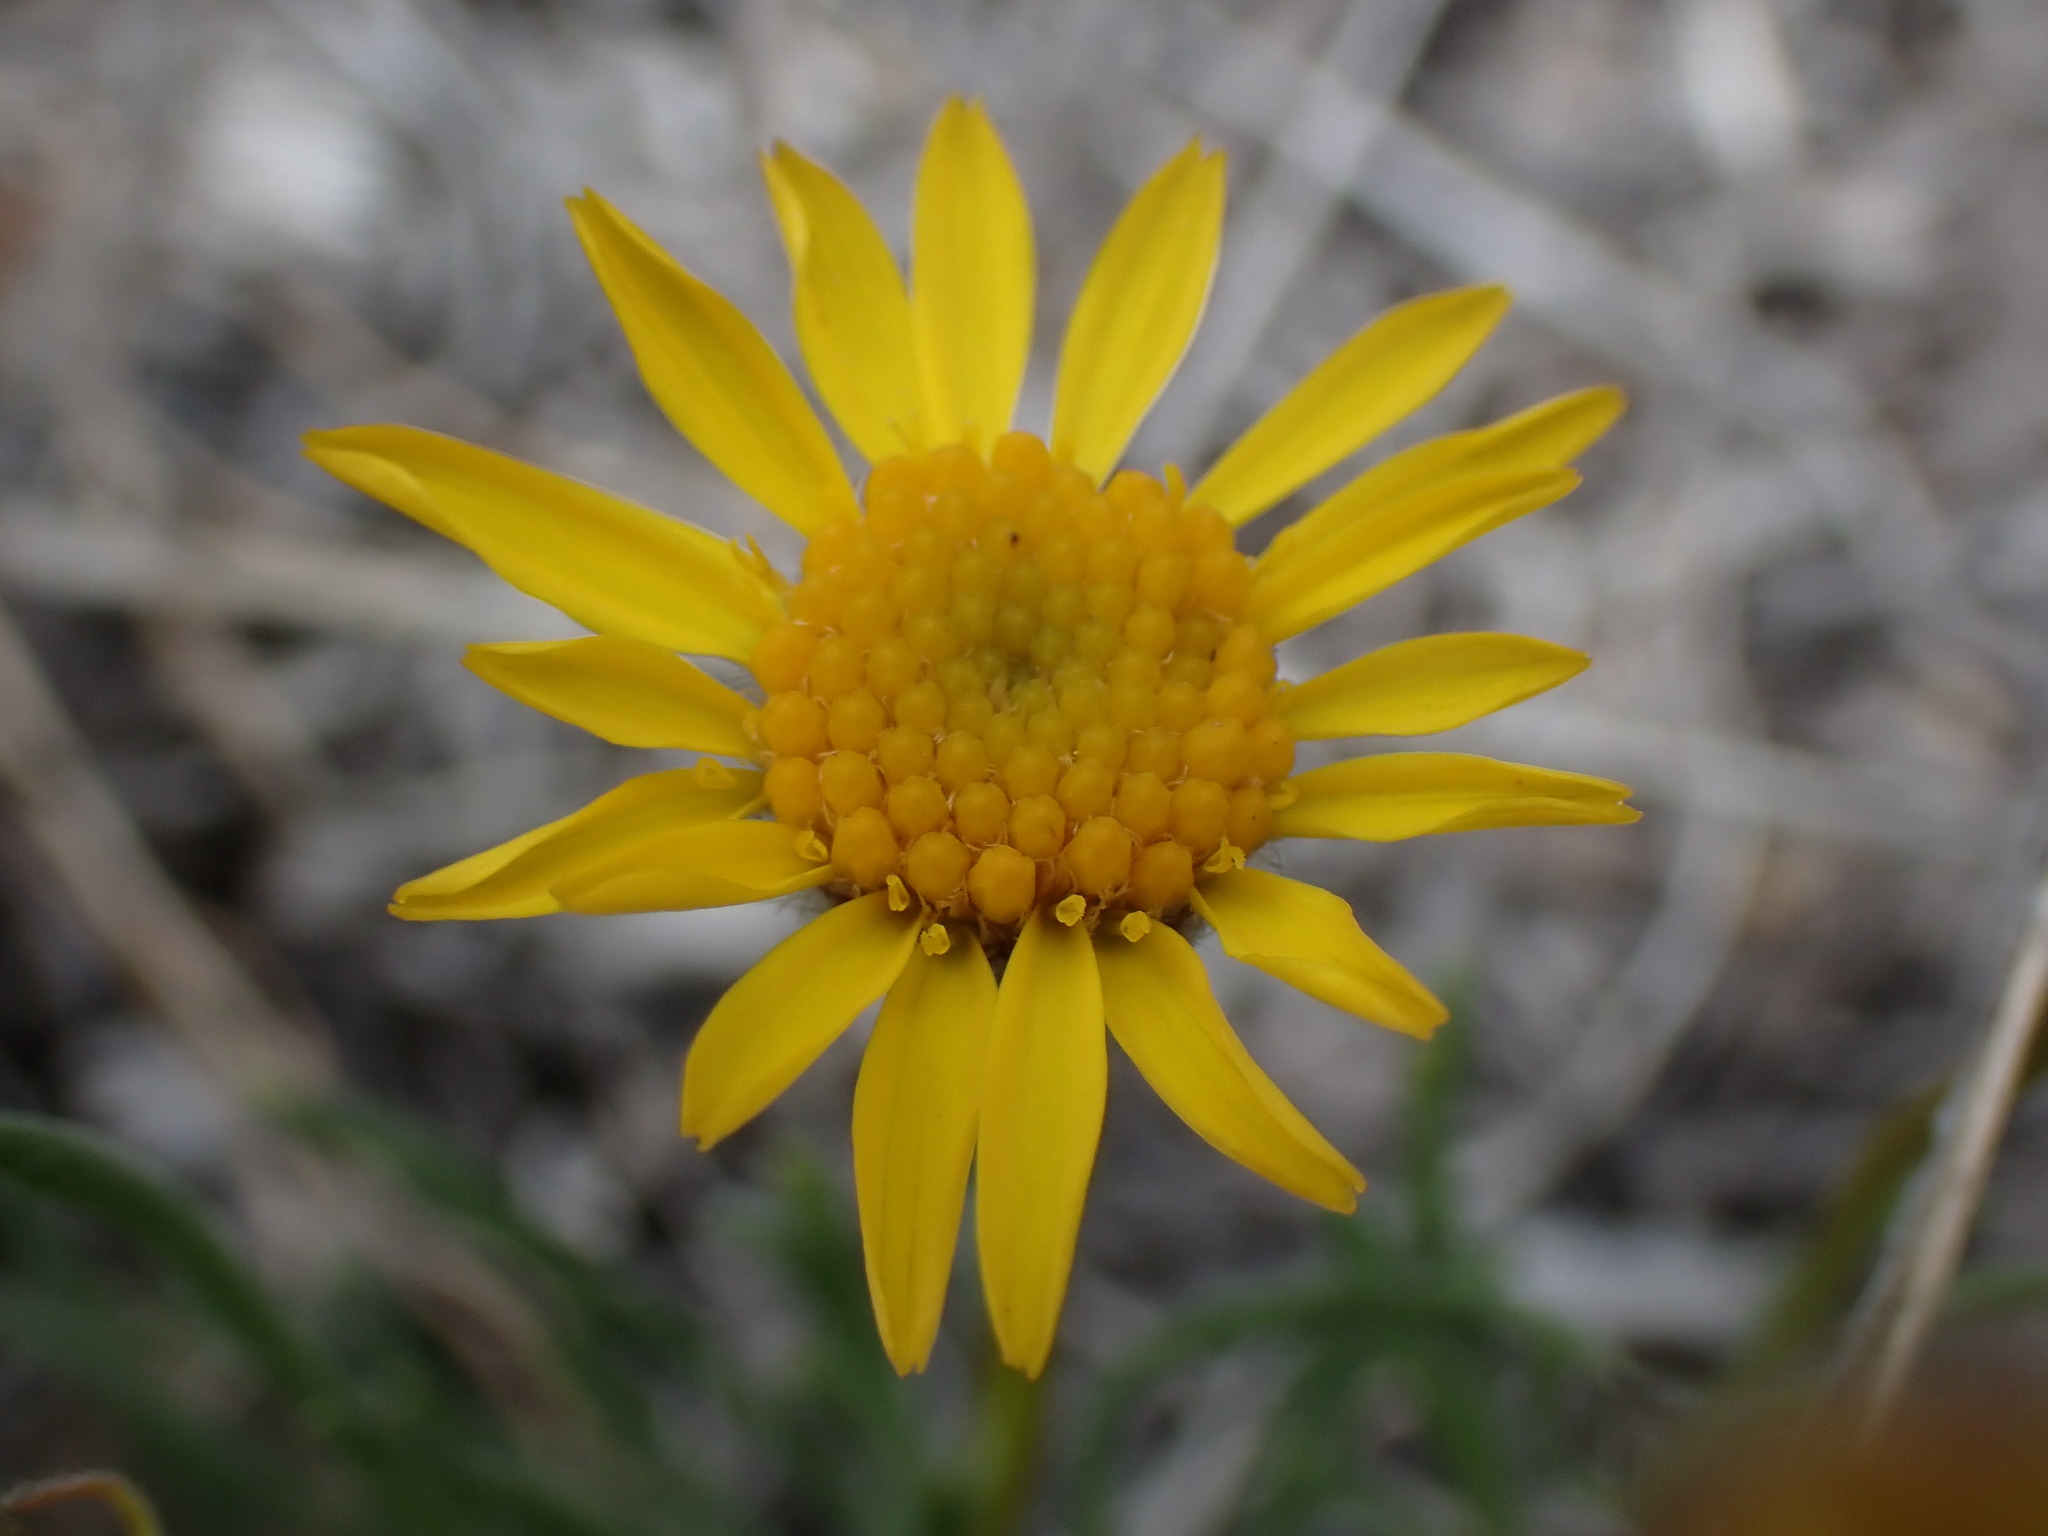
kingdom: Plantae
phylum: Tracheophyta
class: Magnoliopsida
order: Asterales
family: Asteraceae
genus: Erigeron
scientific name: Erigeron linearis
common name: Desert yellow fleabane
